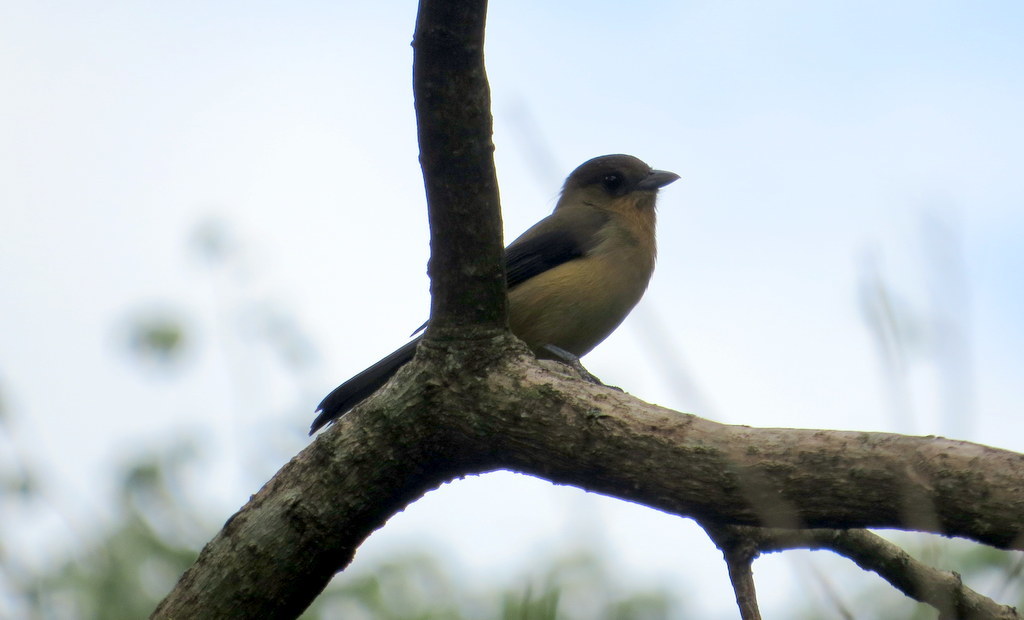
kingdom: Animalia
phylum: Chordata
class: Aves
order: Passeriformes
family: Thraupidae
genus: Trichothraupis
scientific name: Trichothraupis melanops
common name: Black-goggled tanager
